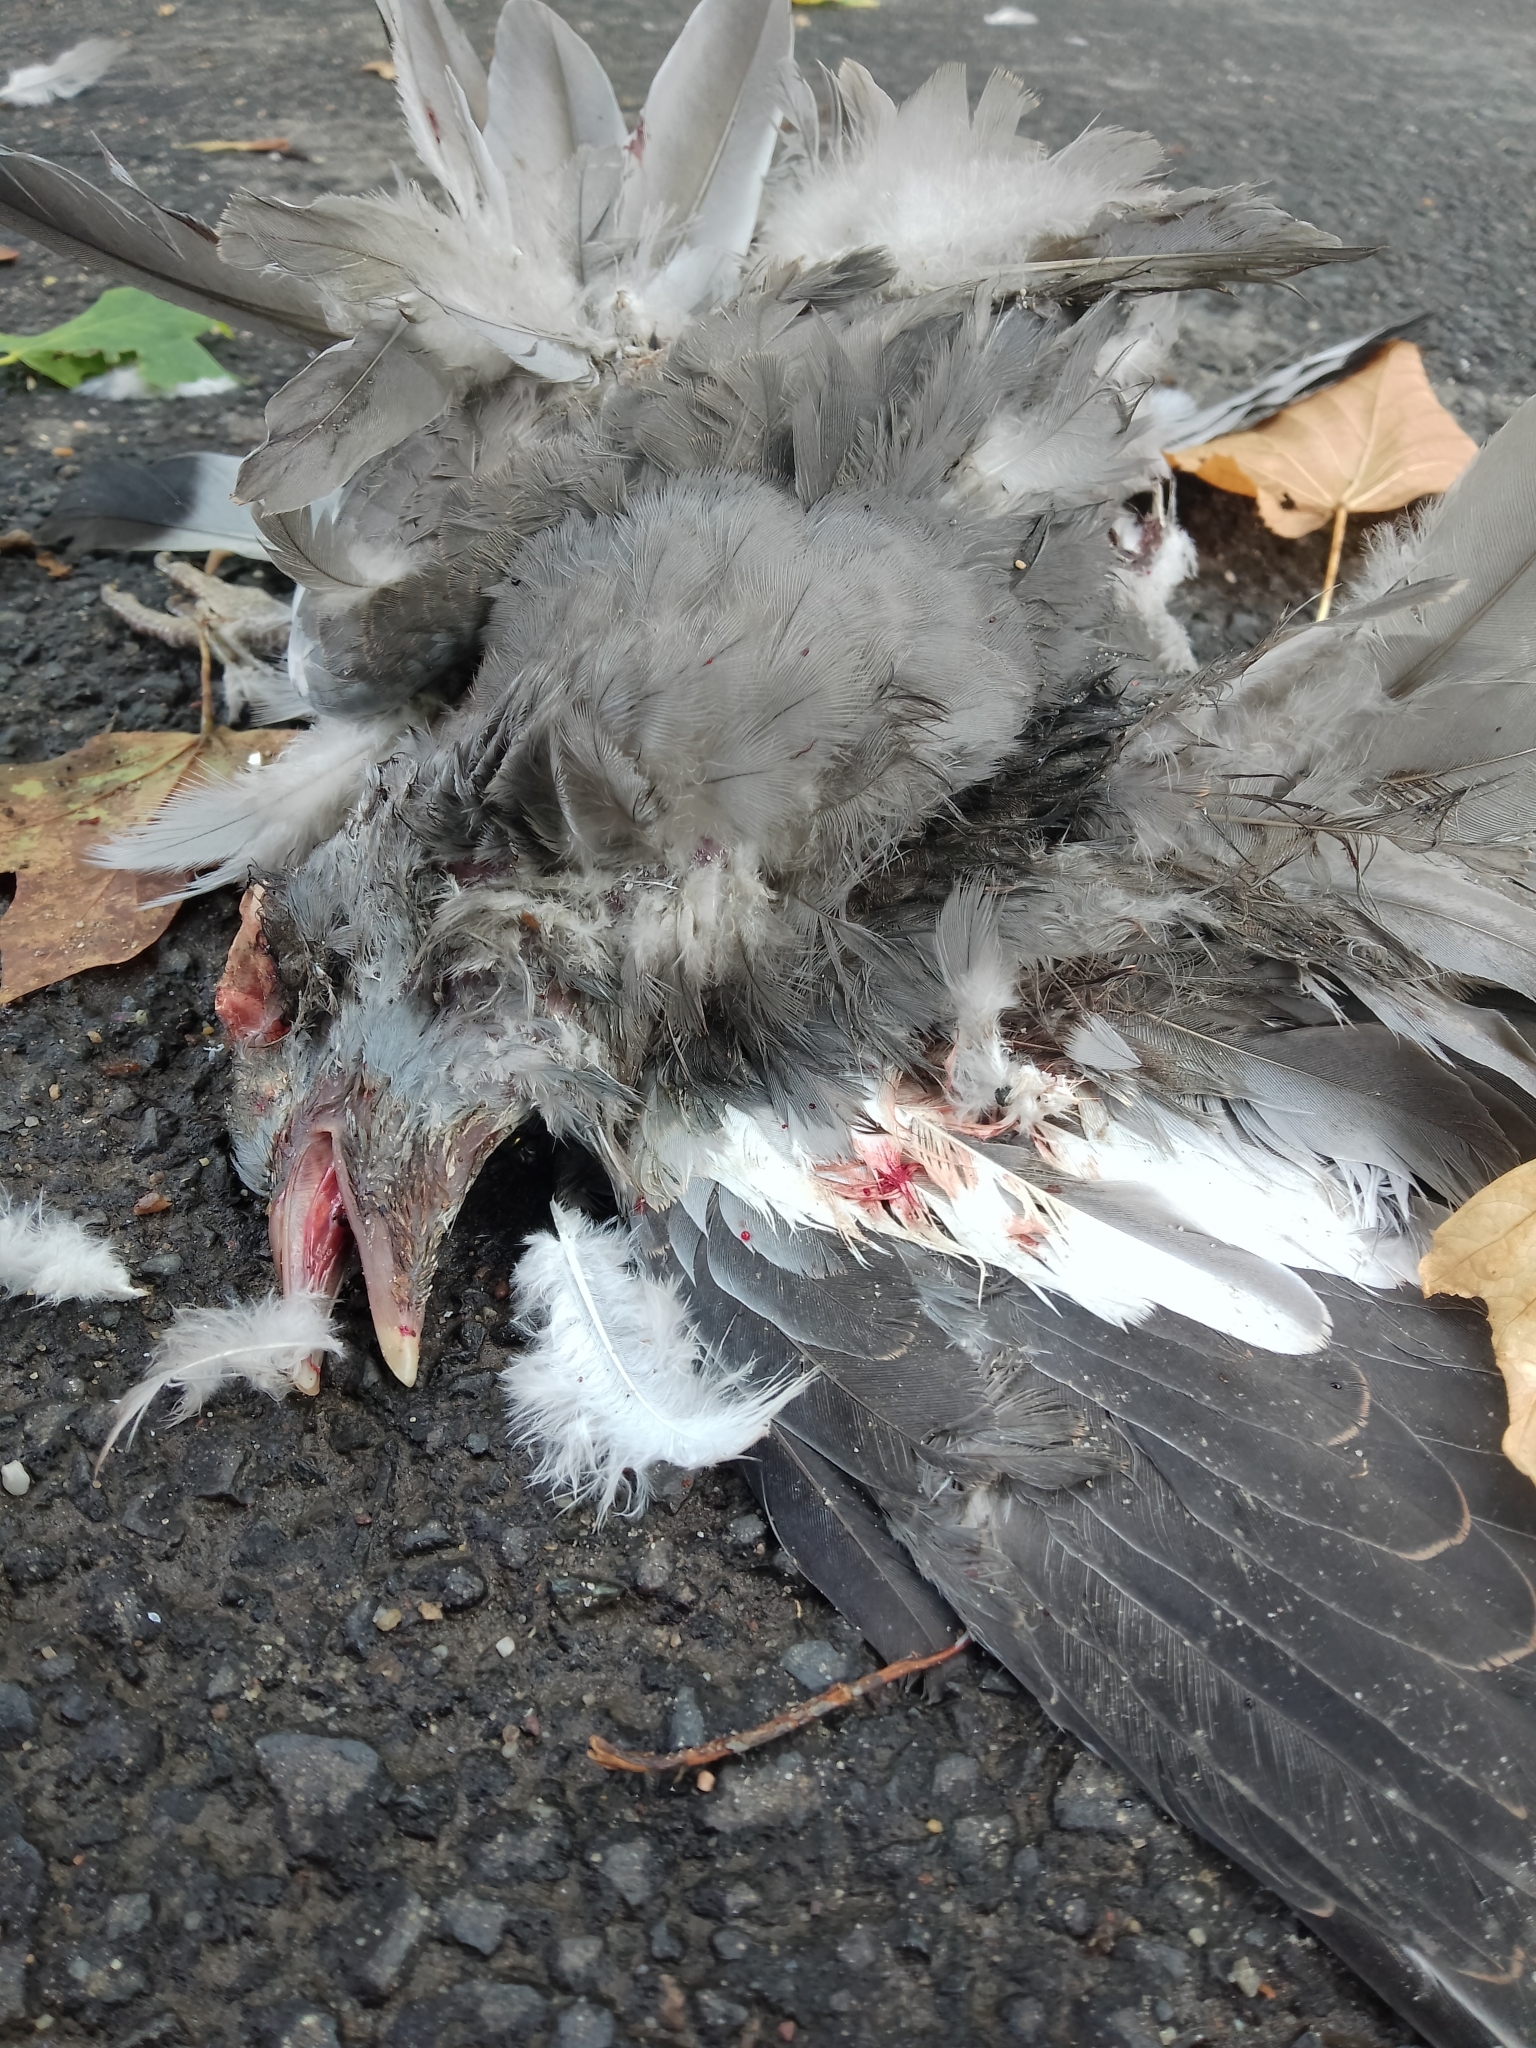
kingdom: Animalia
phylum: Chordata
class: Aves
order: Columbiformes
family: Columbidae
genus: Columba
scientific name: Columba palumbus
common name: Common wood pigeon
